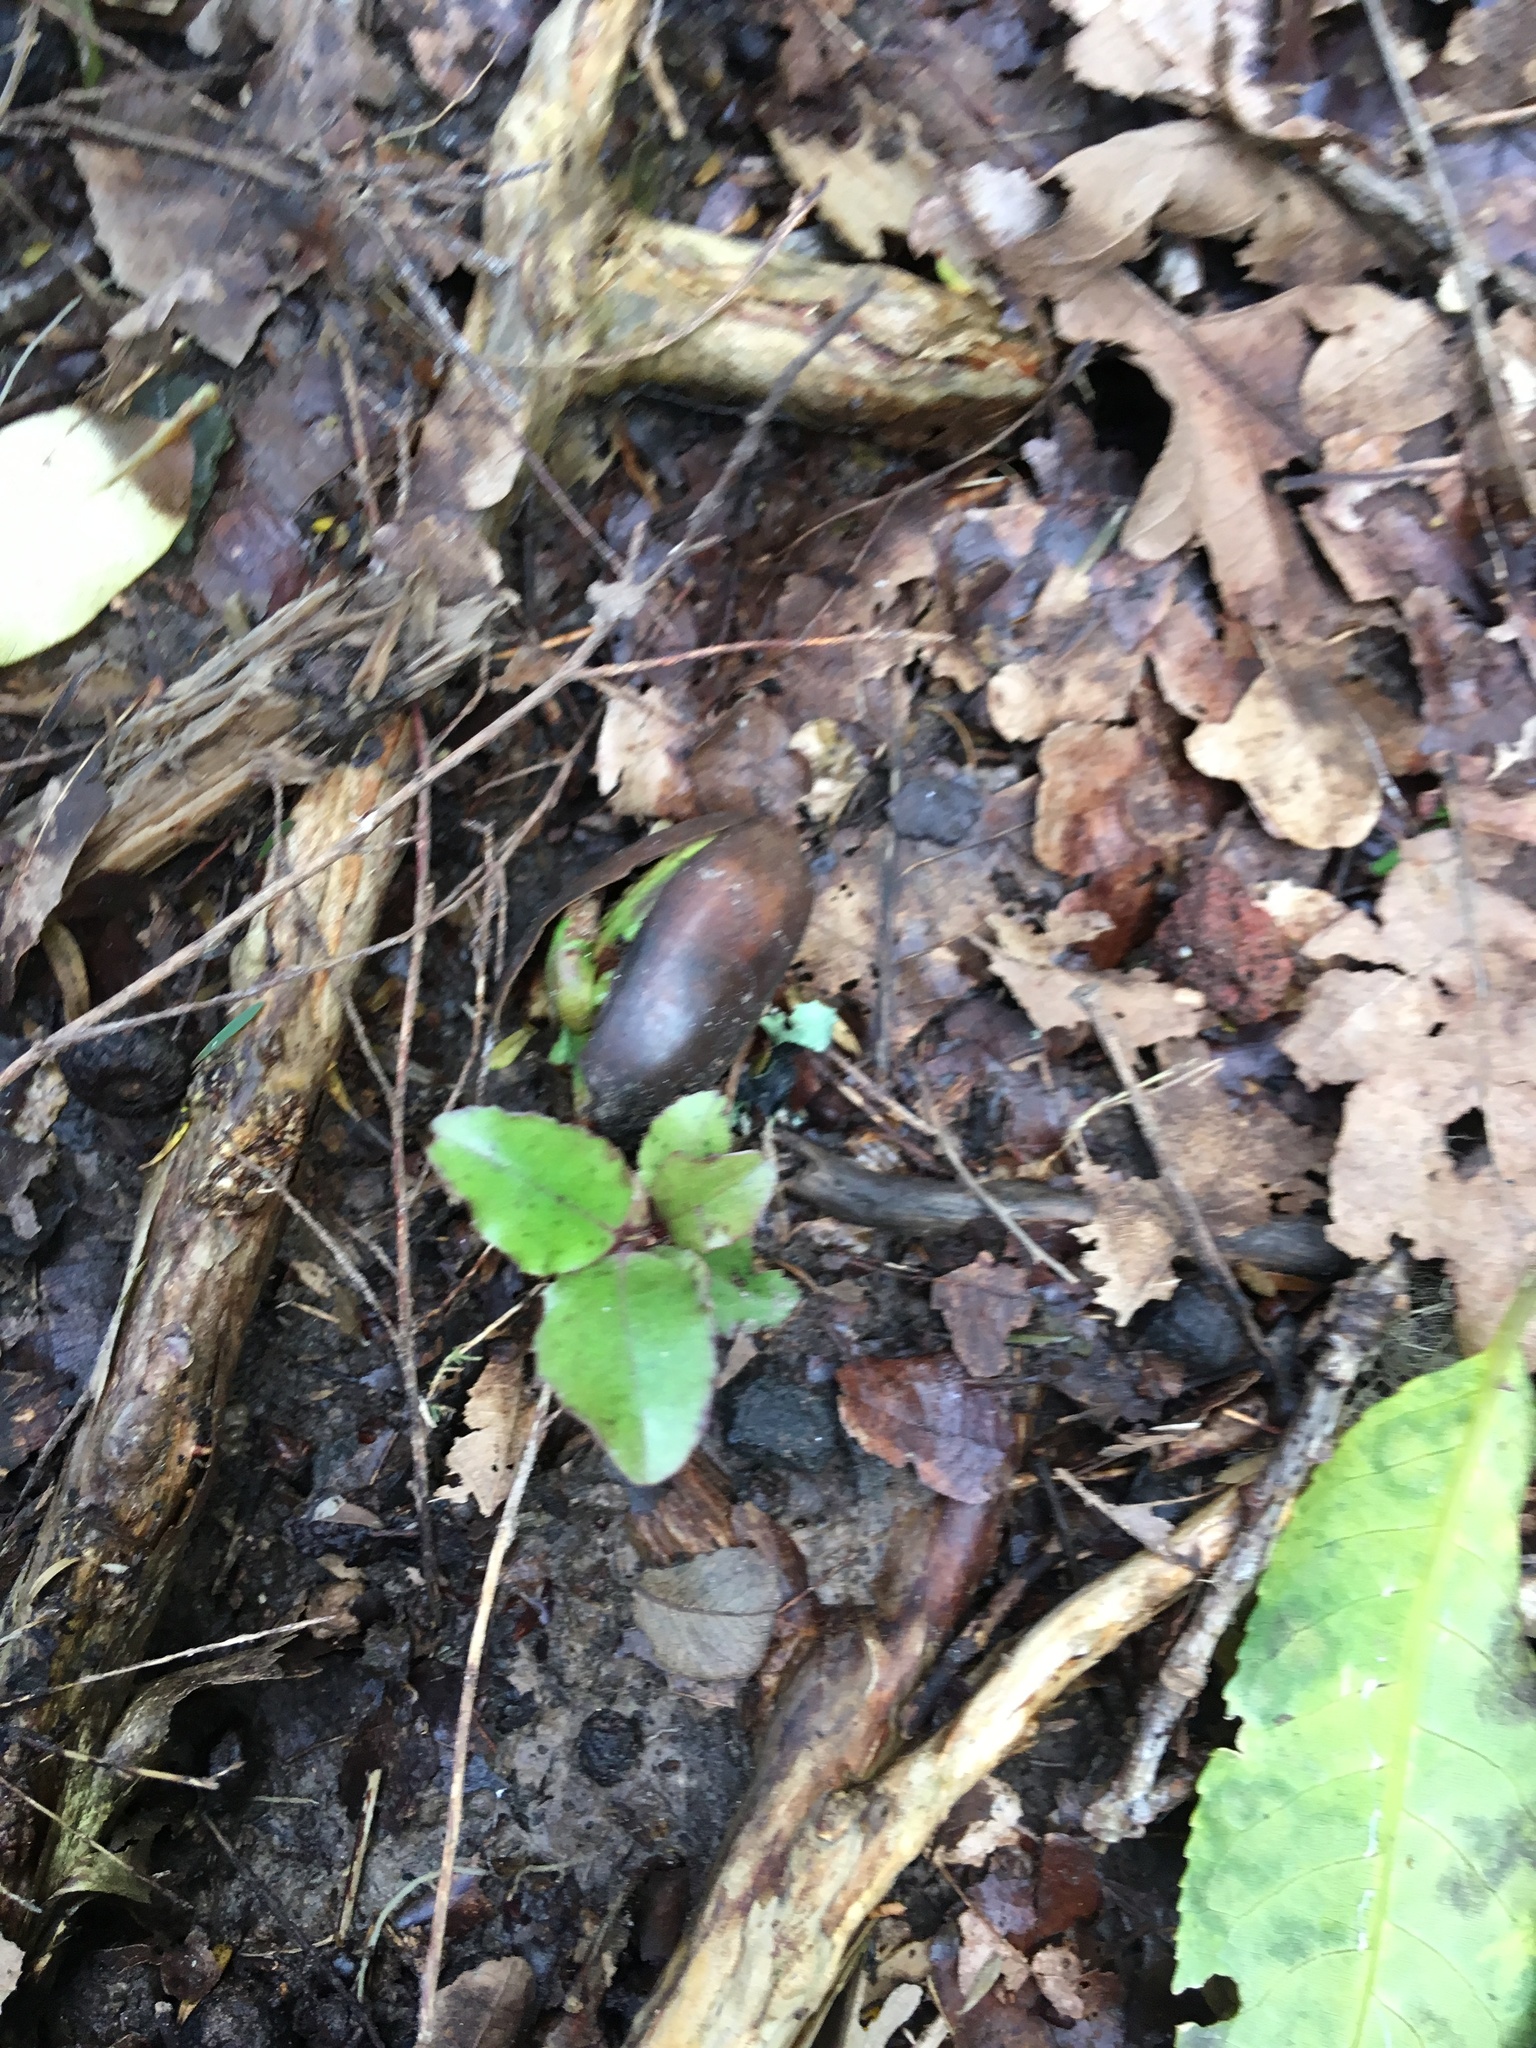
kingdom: Plantae
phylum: Tracheophyta
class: Magnoliopsida
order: Ericales
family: Primulaceae
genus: Myrsine
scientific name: Myrsine australis
